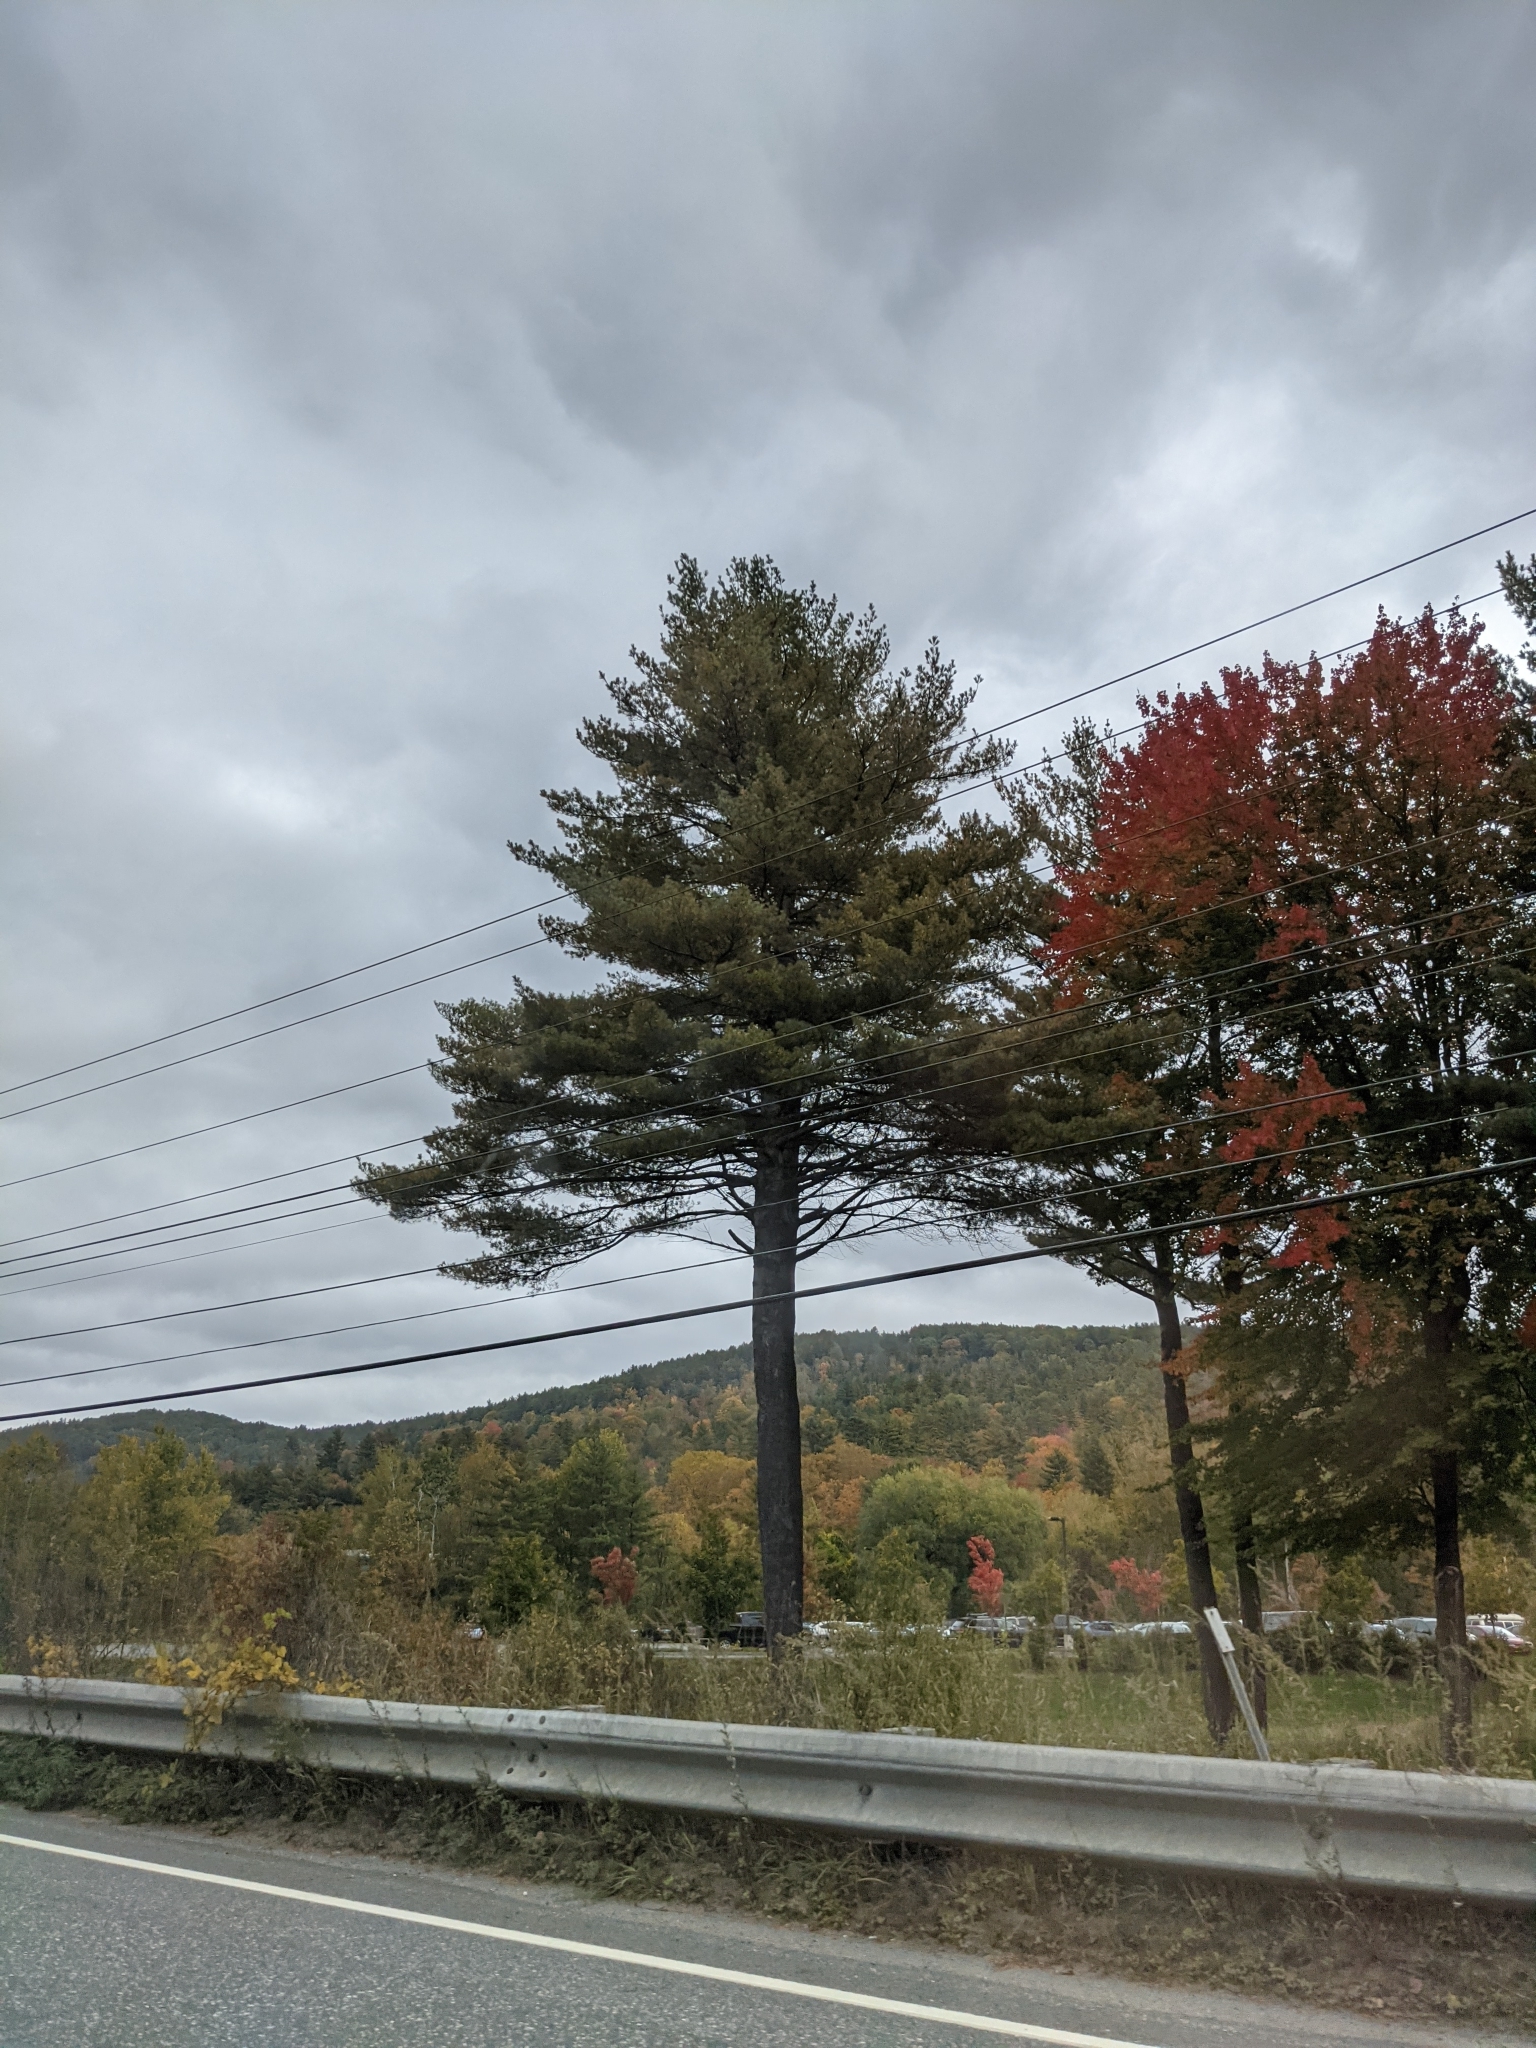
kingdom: Plantae
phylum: Tracheophyta
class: Pinopsida
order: Pinales
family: Pinaceae
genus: Pinus
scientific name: Pinus strobus
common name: Weymouth pine
